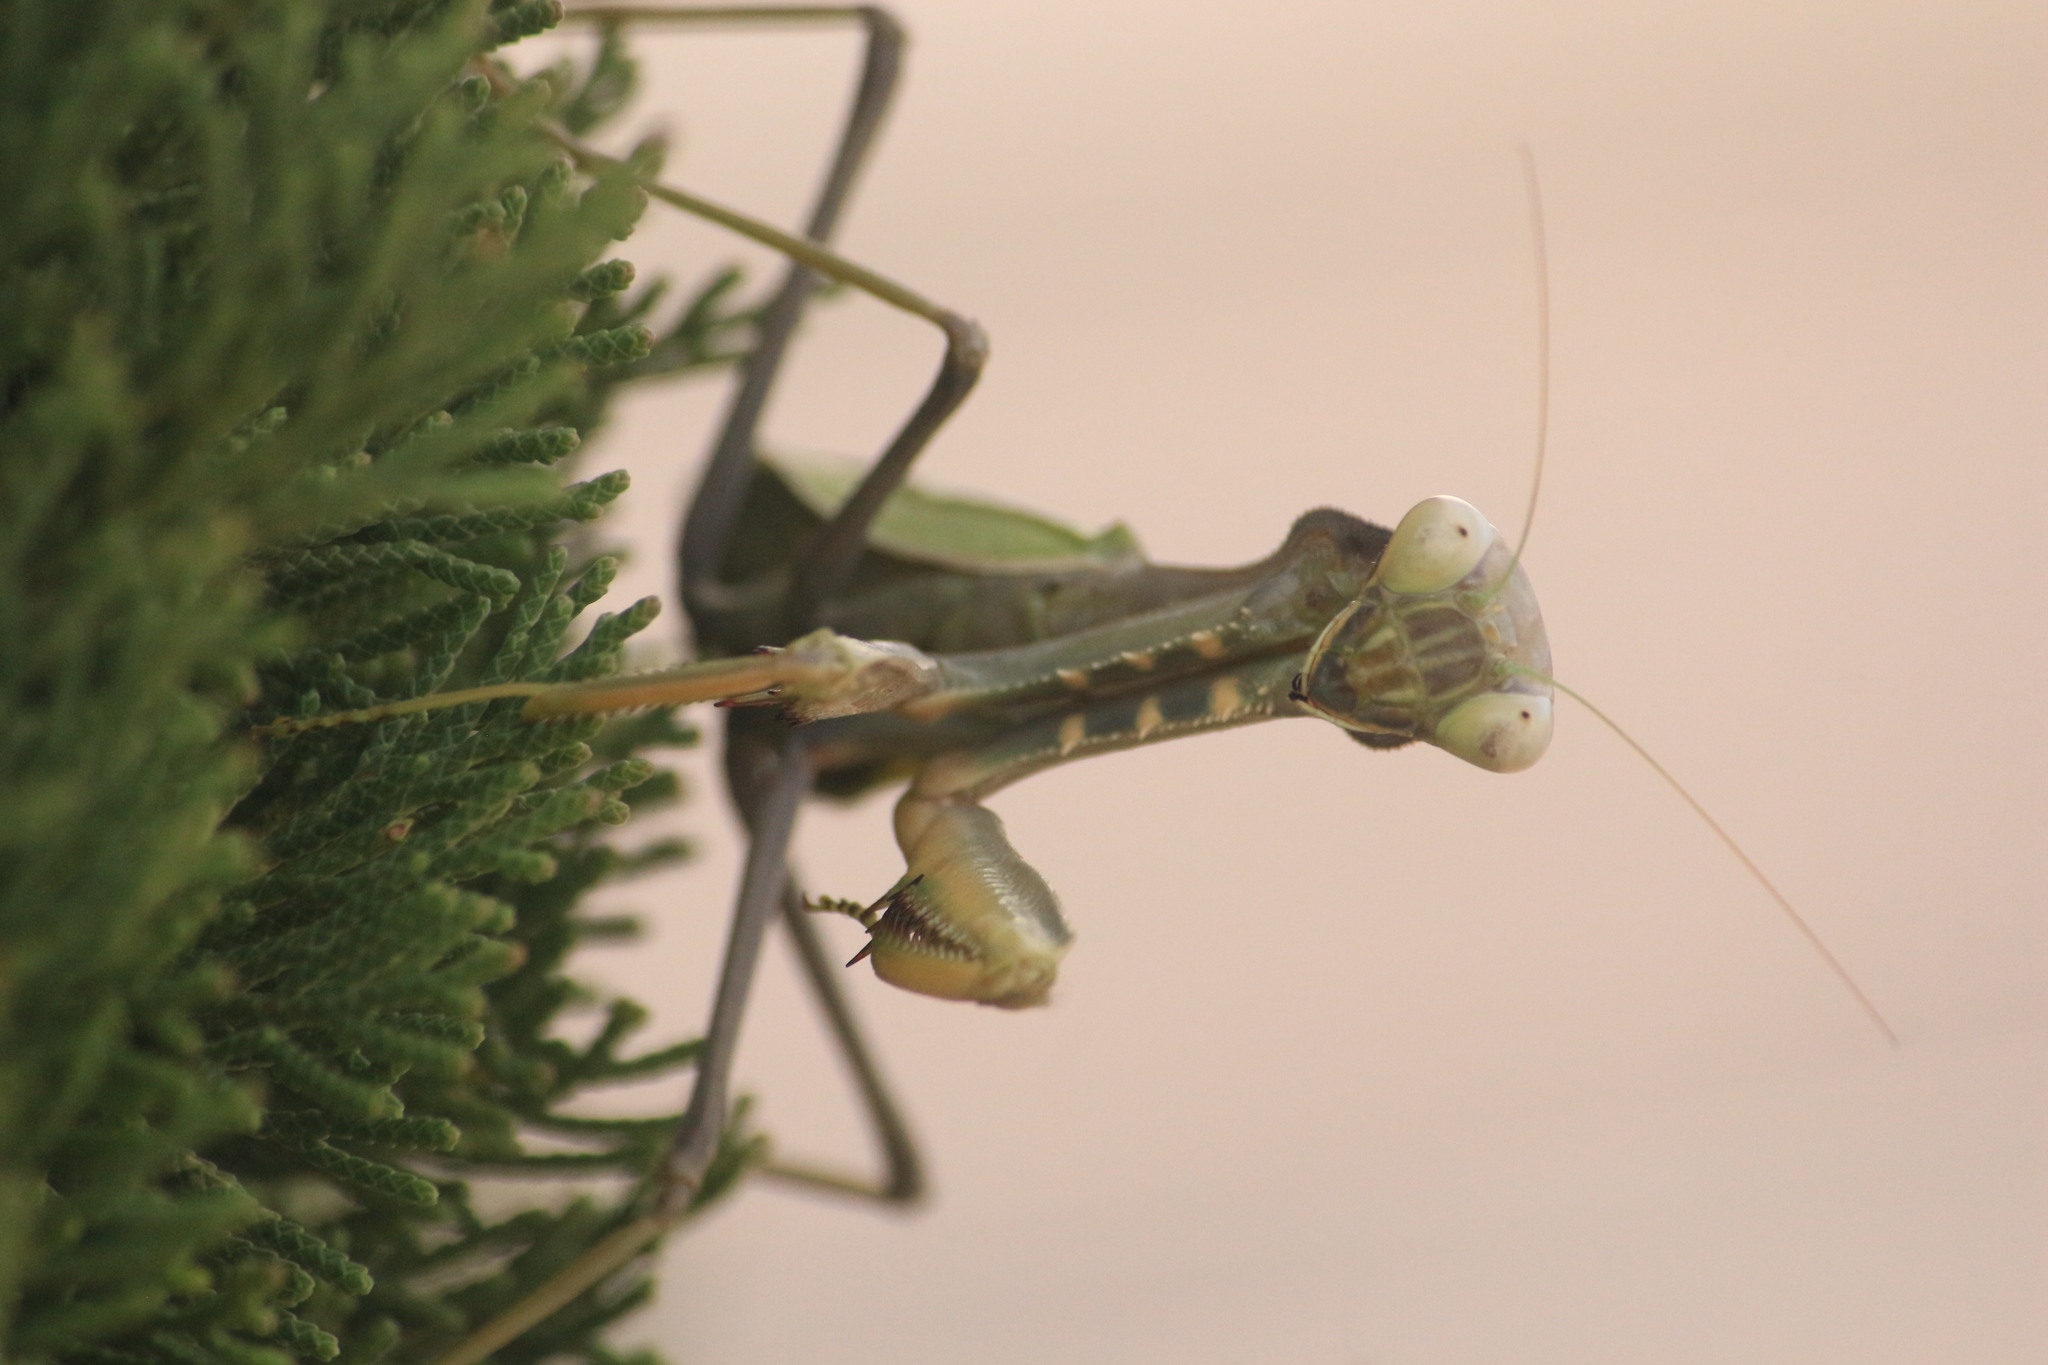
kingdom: Animalia
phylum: Arthropoda
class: Insecta
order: Mantodea
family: Mantidae
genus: Sphodromantis
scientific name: Sphodromantis viridis
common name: Giant african mantis
